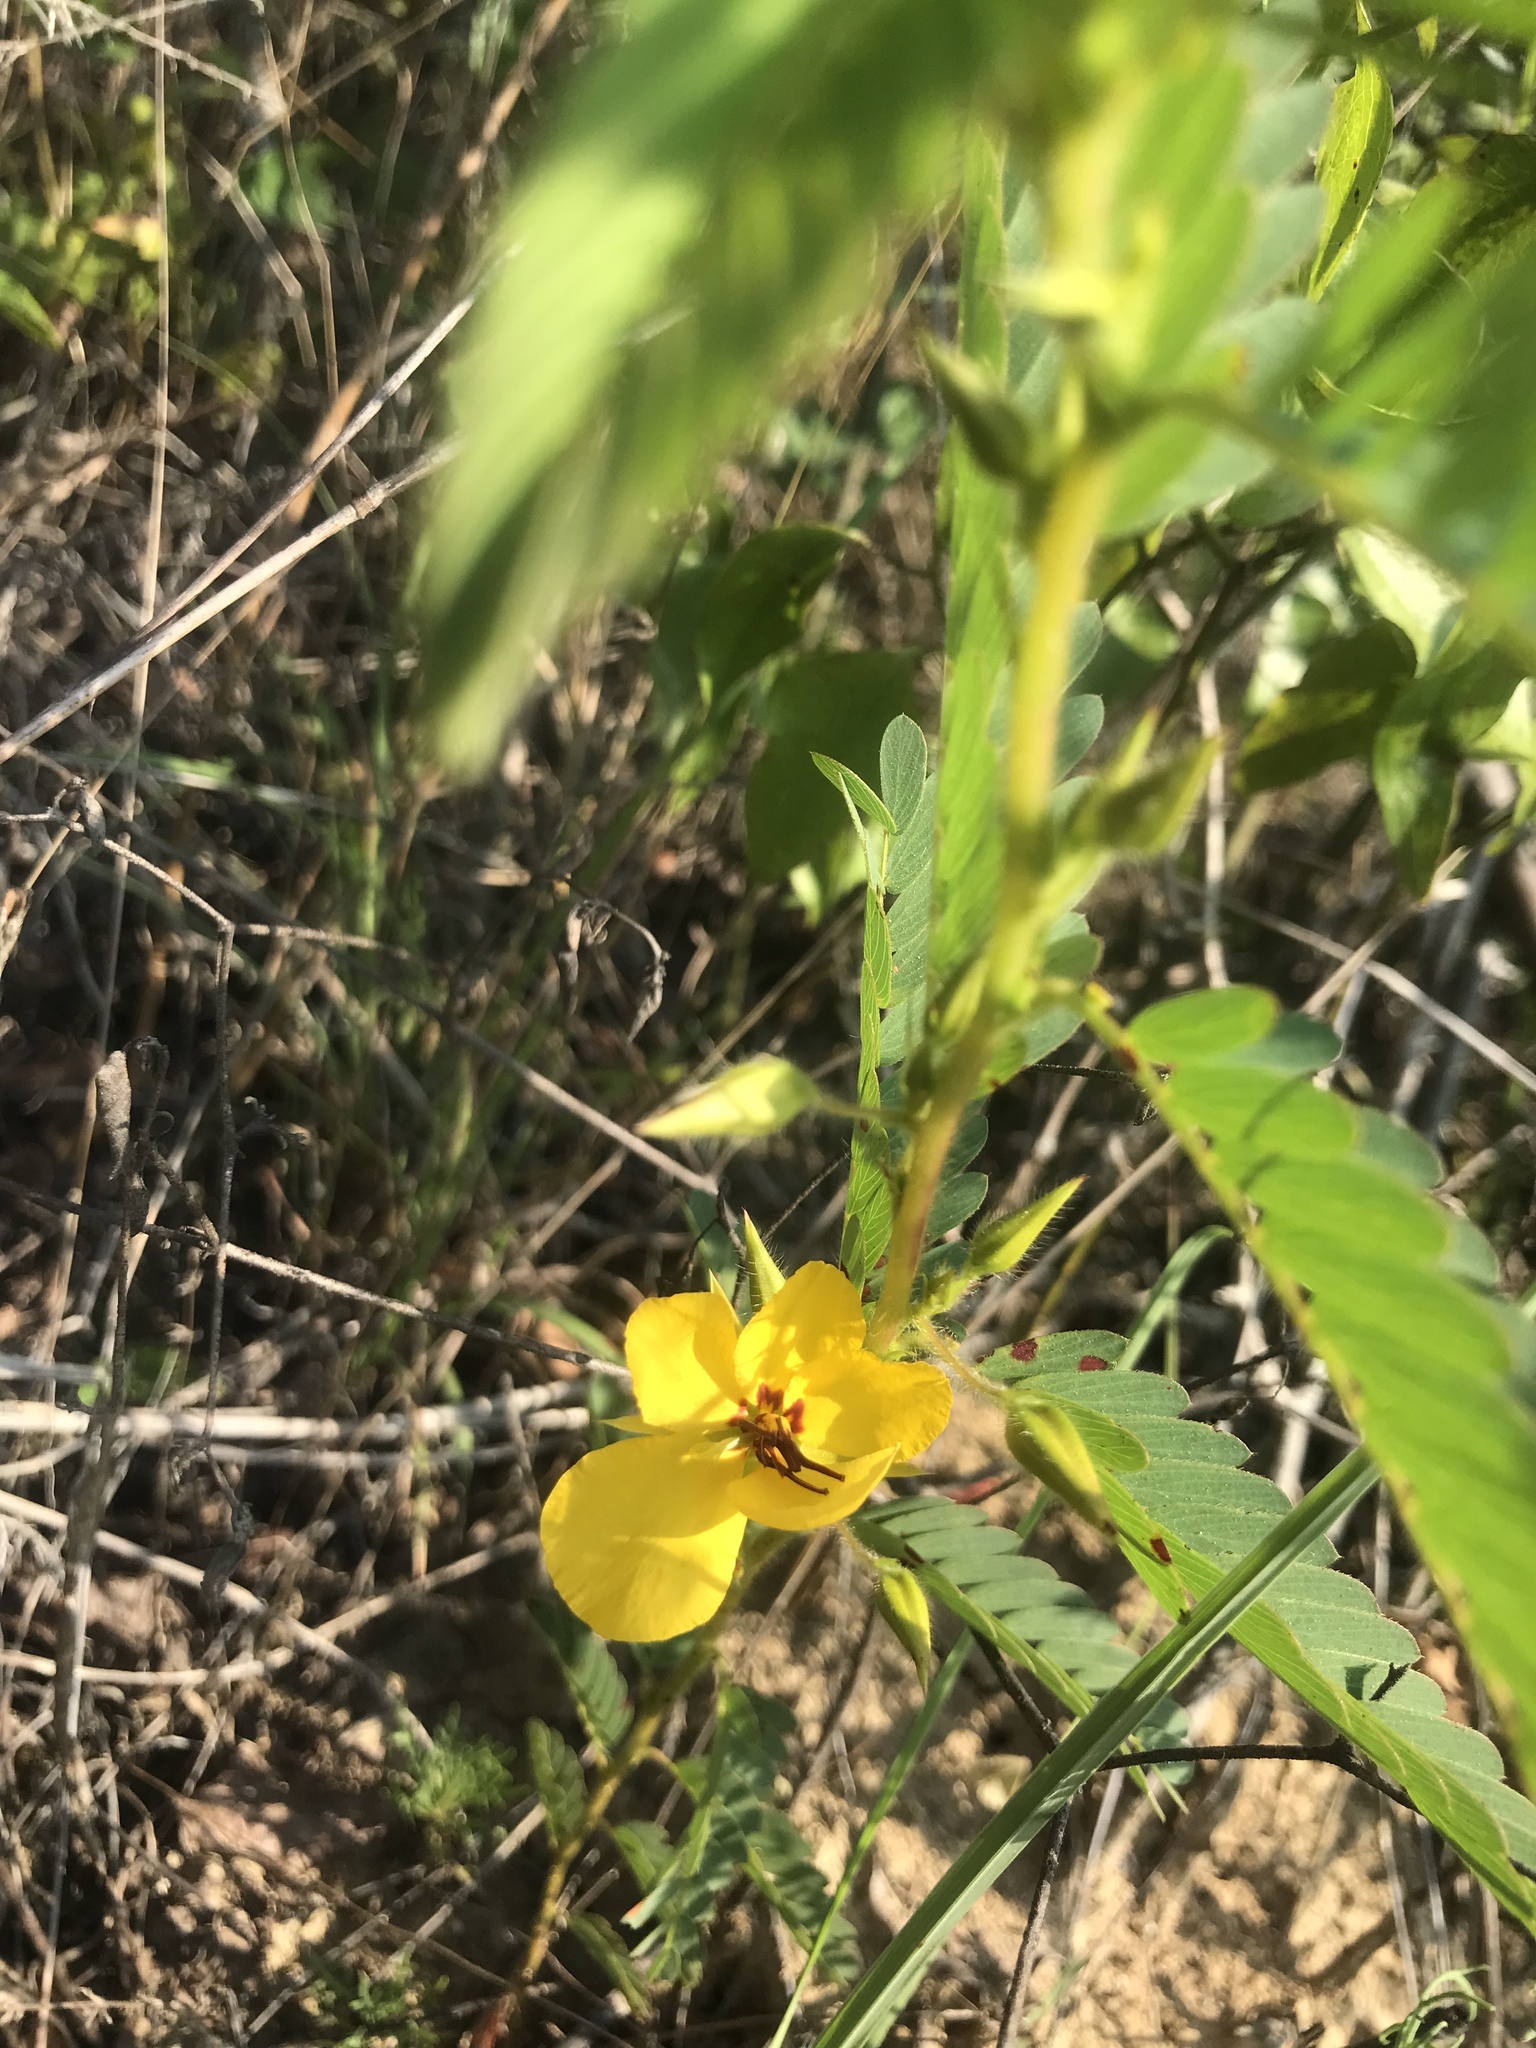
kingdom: Plantae
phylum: Tracheophyta
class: Magnoliopsida
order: Fabales
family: Fabaceae
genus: Chamaecrista
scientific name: Chamaecrista fasciculata
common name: Golden cassia
